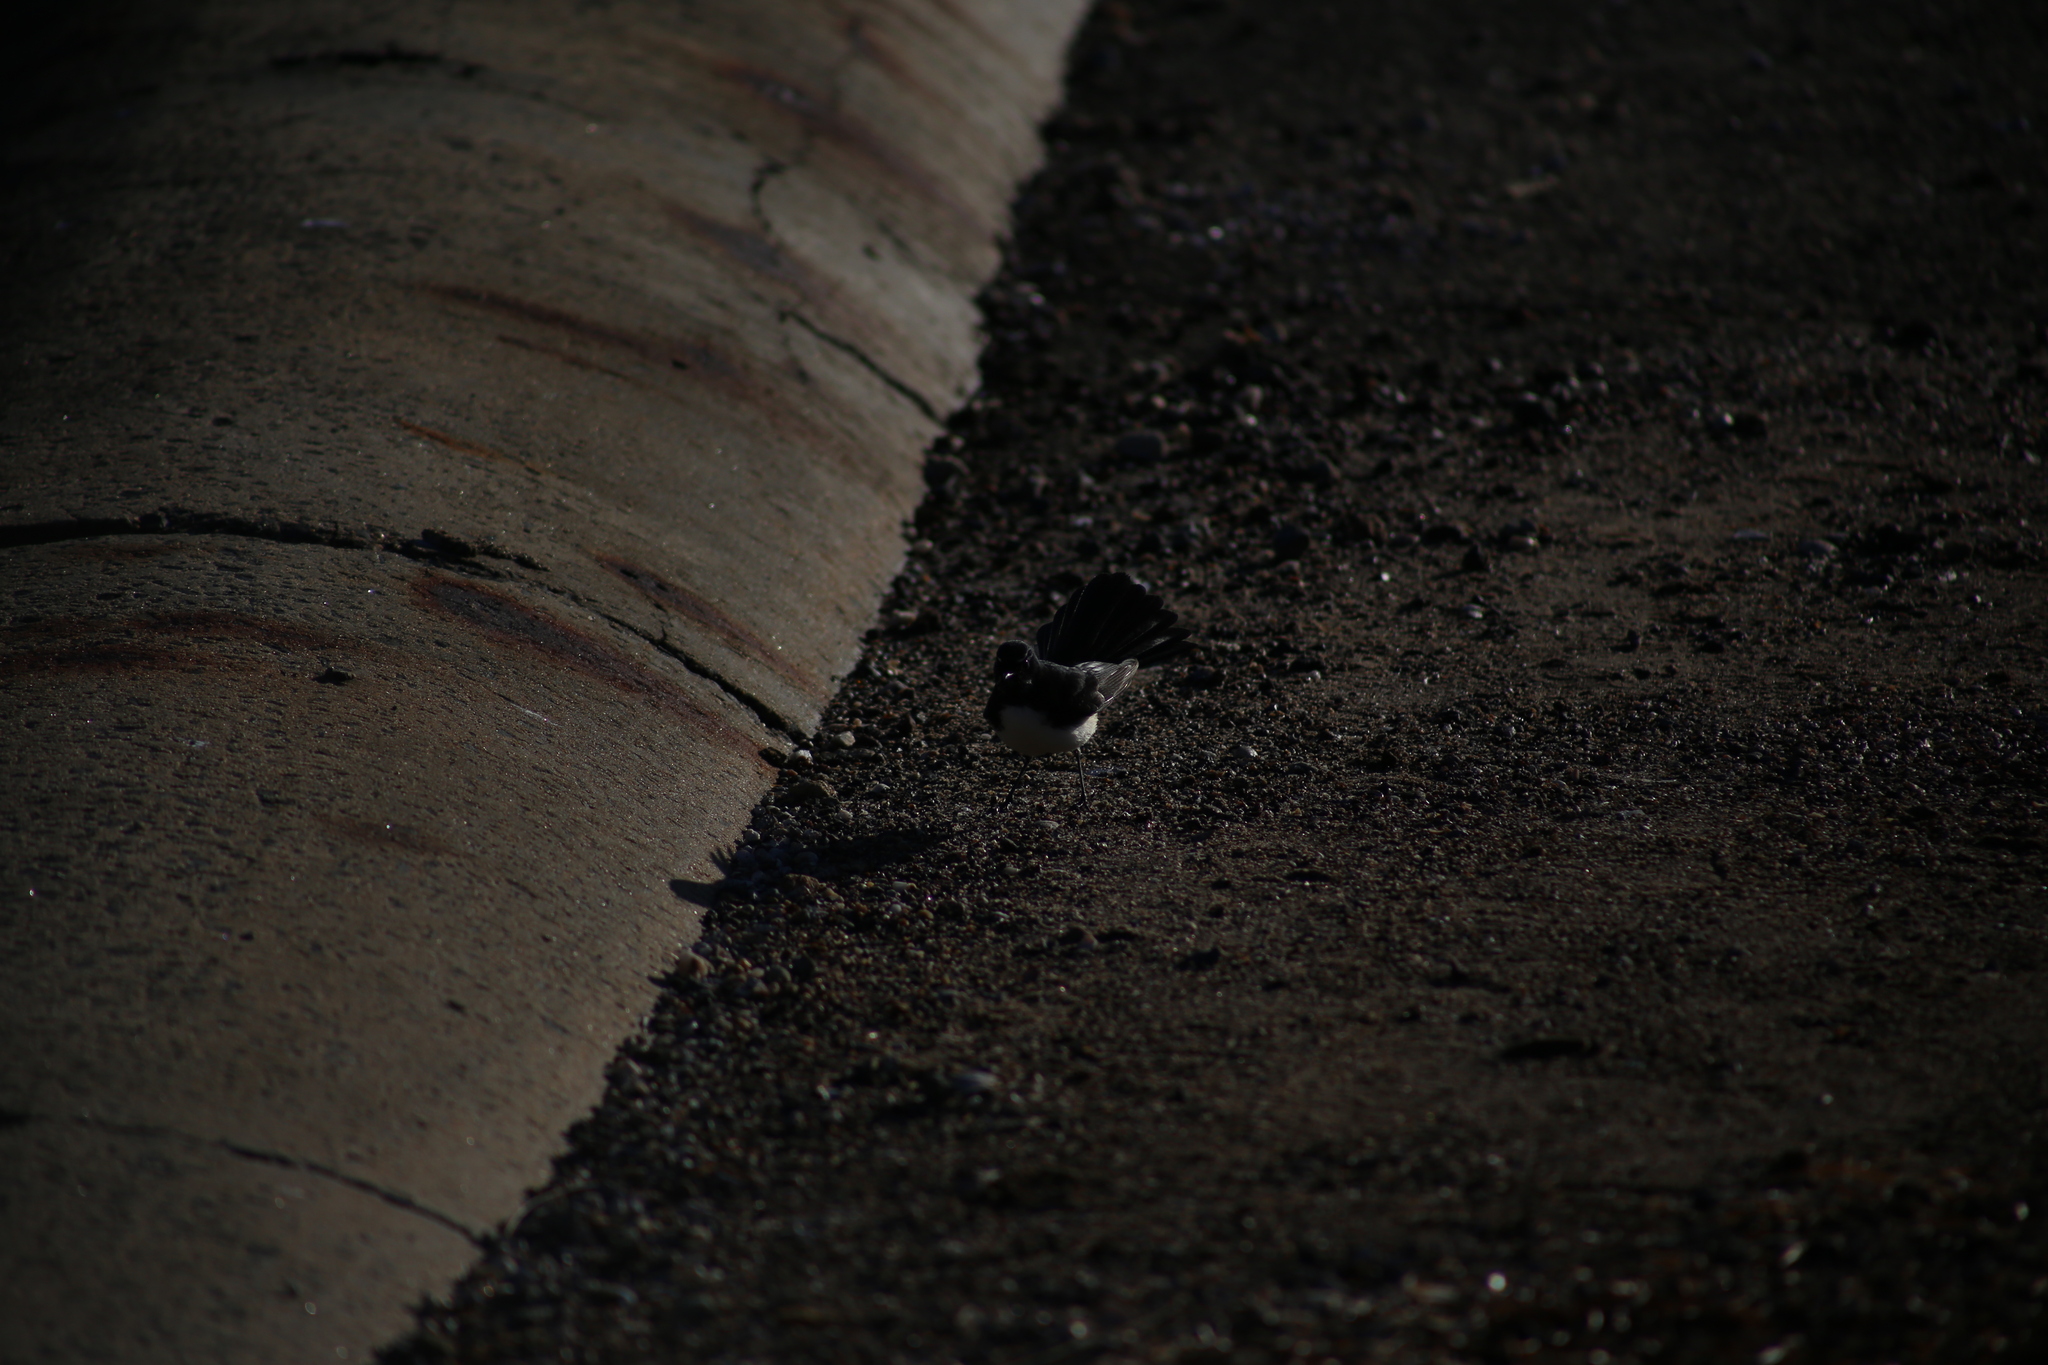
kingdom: Animalia
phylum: Chordata
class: Aves
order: Passeriformes
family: Rhipiduridae
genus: Rhipidura
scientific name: Rhipidura leucophrys
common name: Willie wagtail
